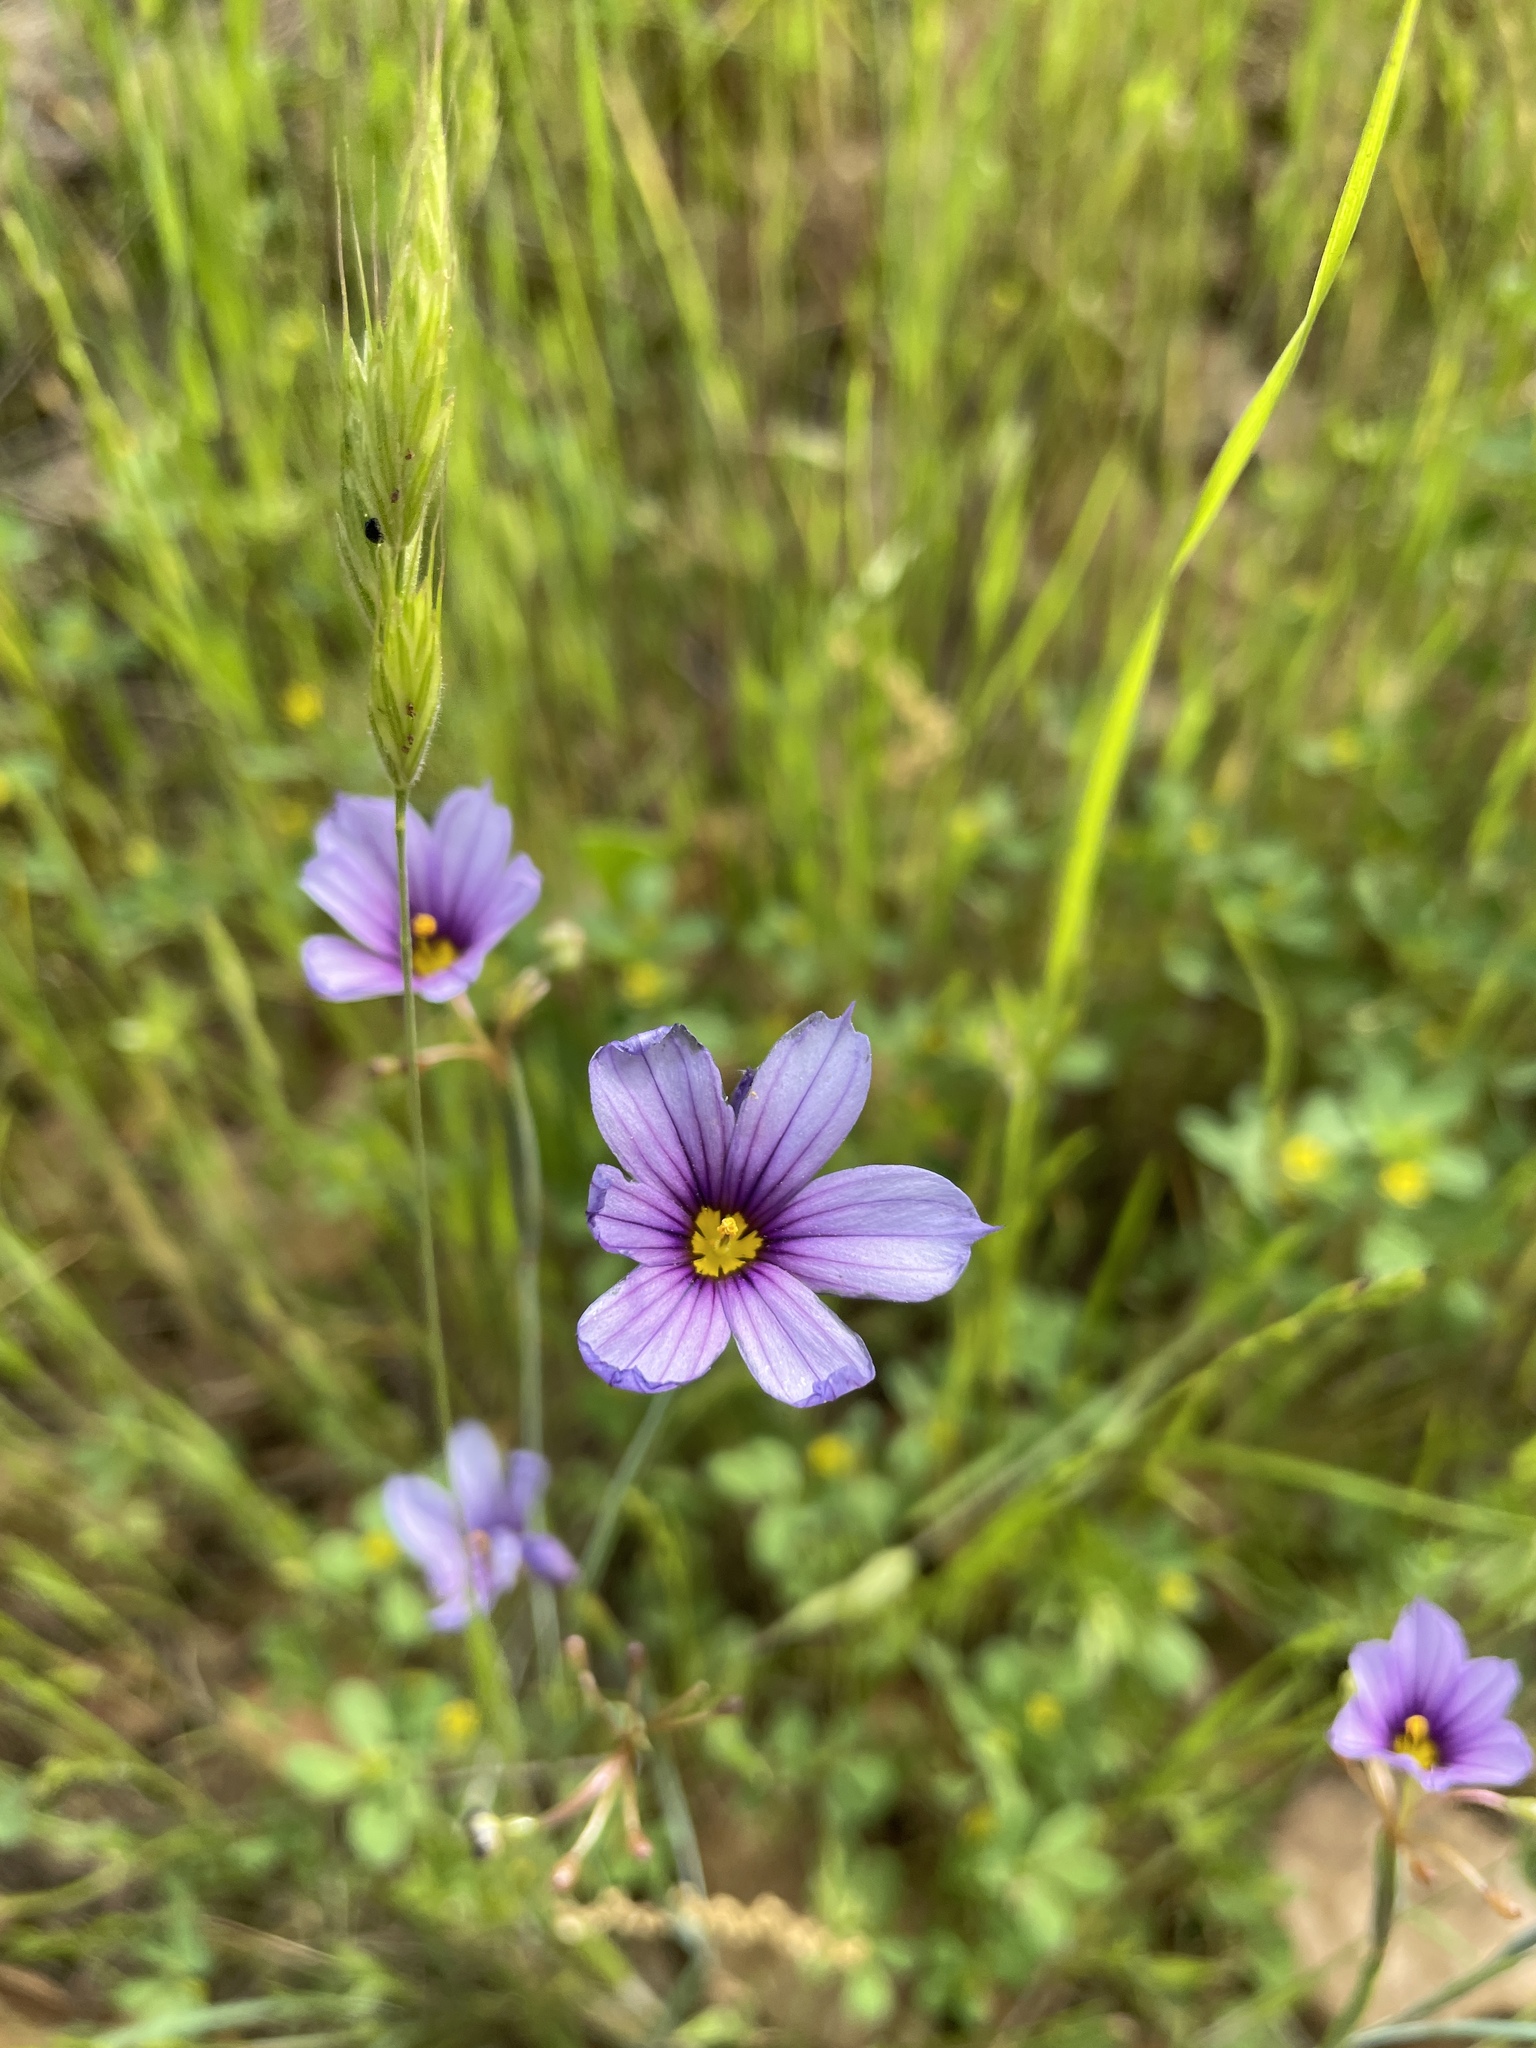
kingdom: Plantae
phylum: Tracheophyta
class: Liliopsida
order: Asparagales
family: Iridaceae
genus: Sisyrinchium
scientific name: Sisyrinchium bellum
